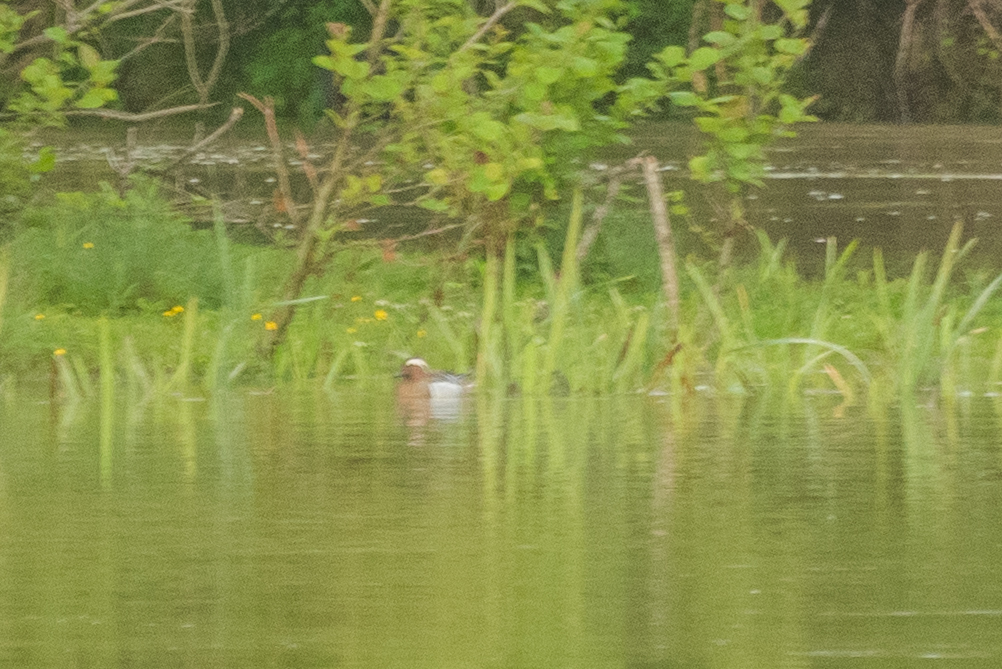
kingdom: Animalia
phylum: Chordata
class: Aves
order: Anseriformes
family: Anatidae
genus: Spatula
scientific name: Spatula querquedula
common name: Garganey
